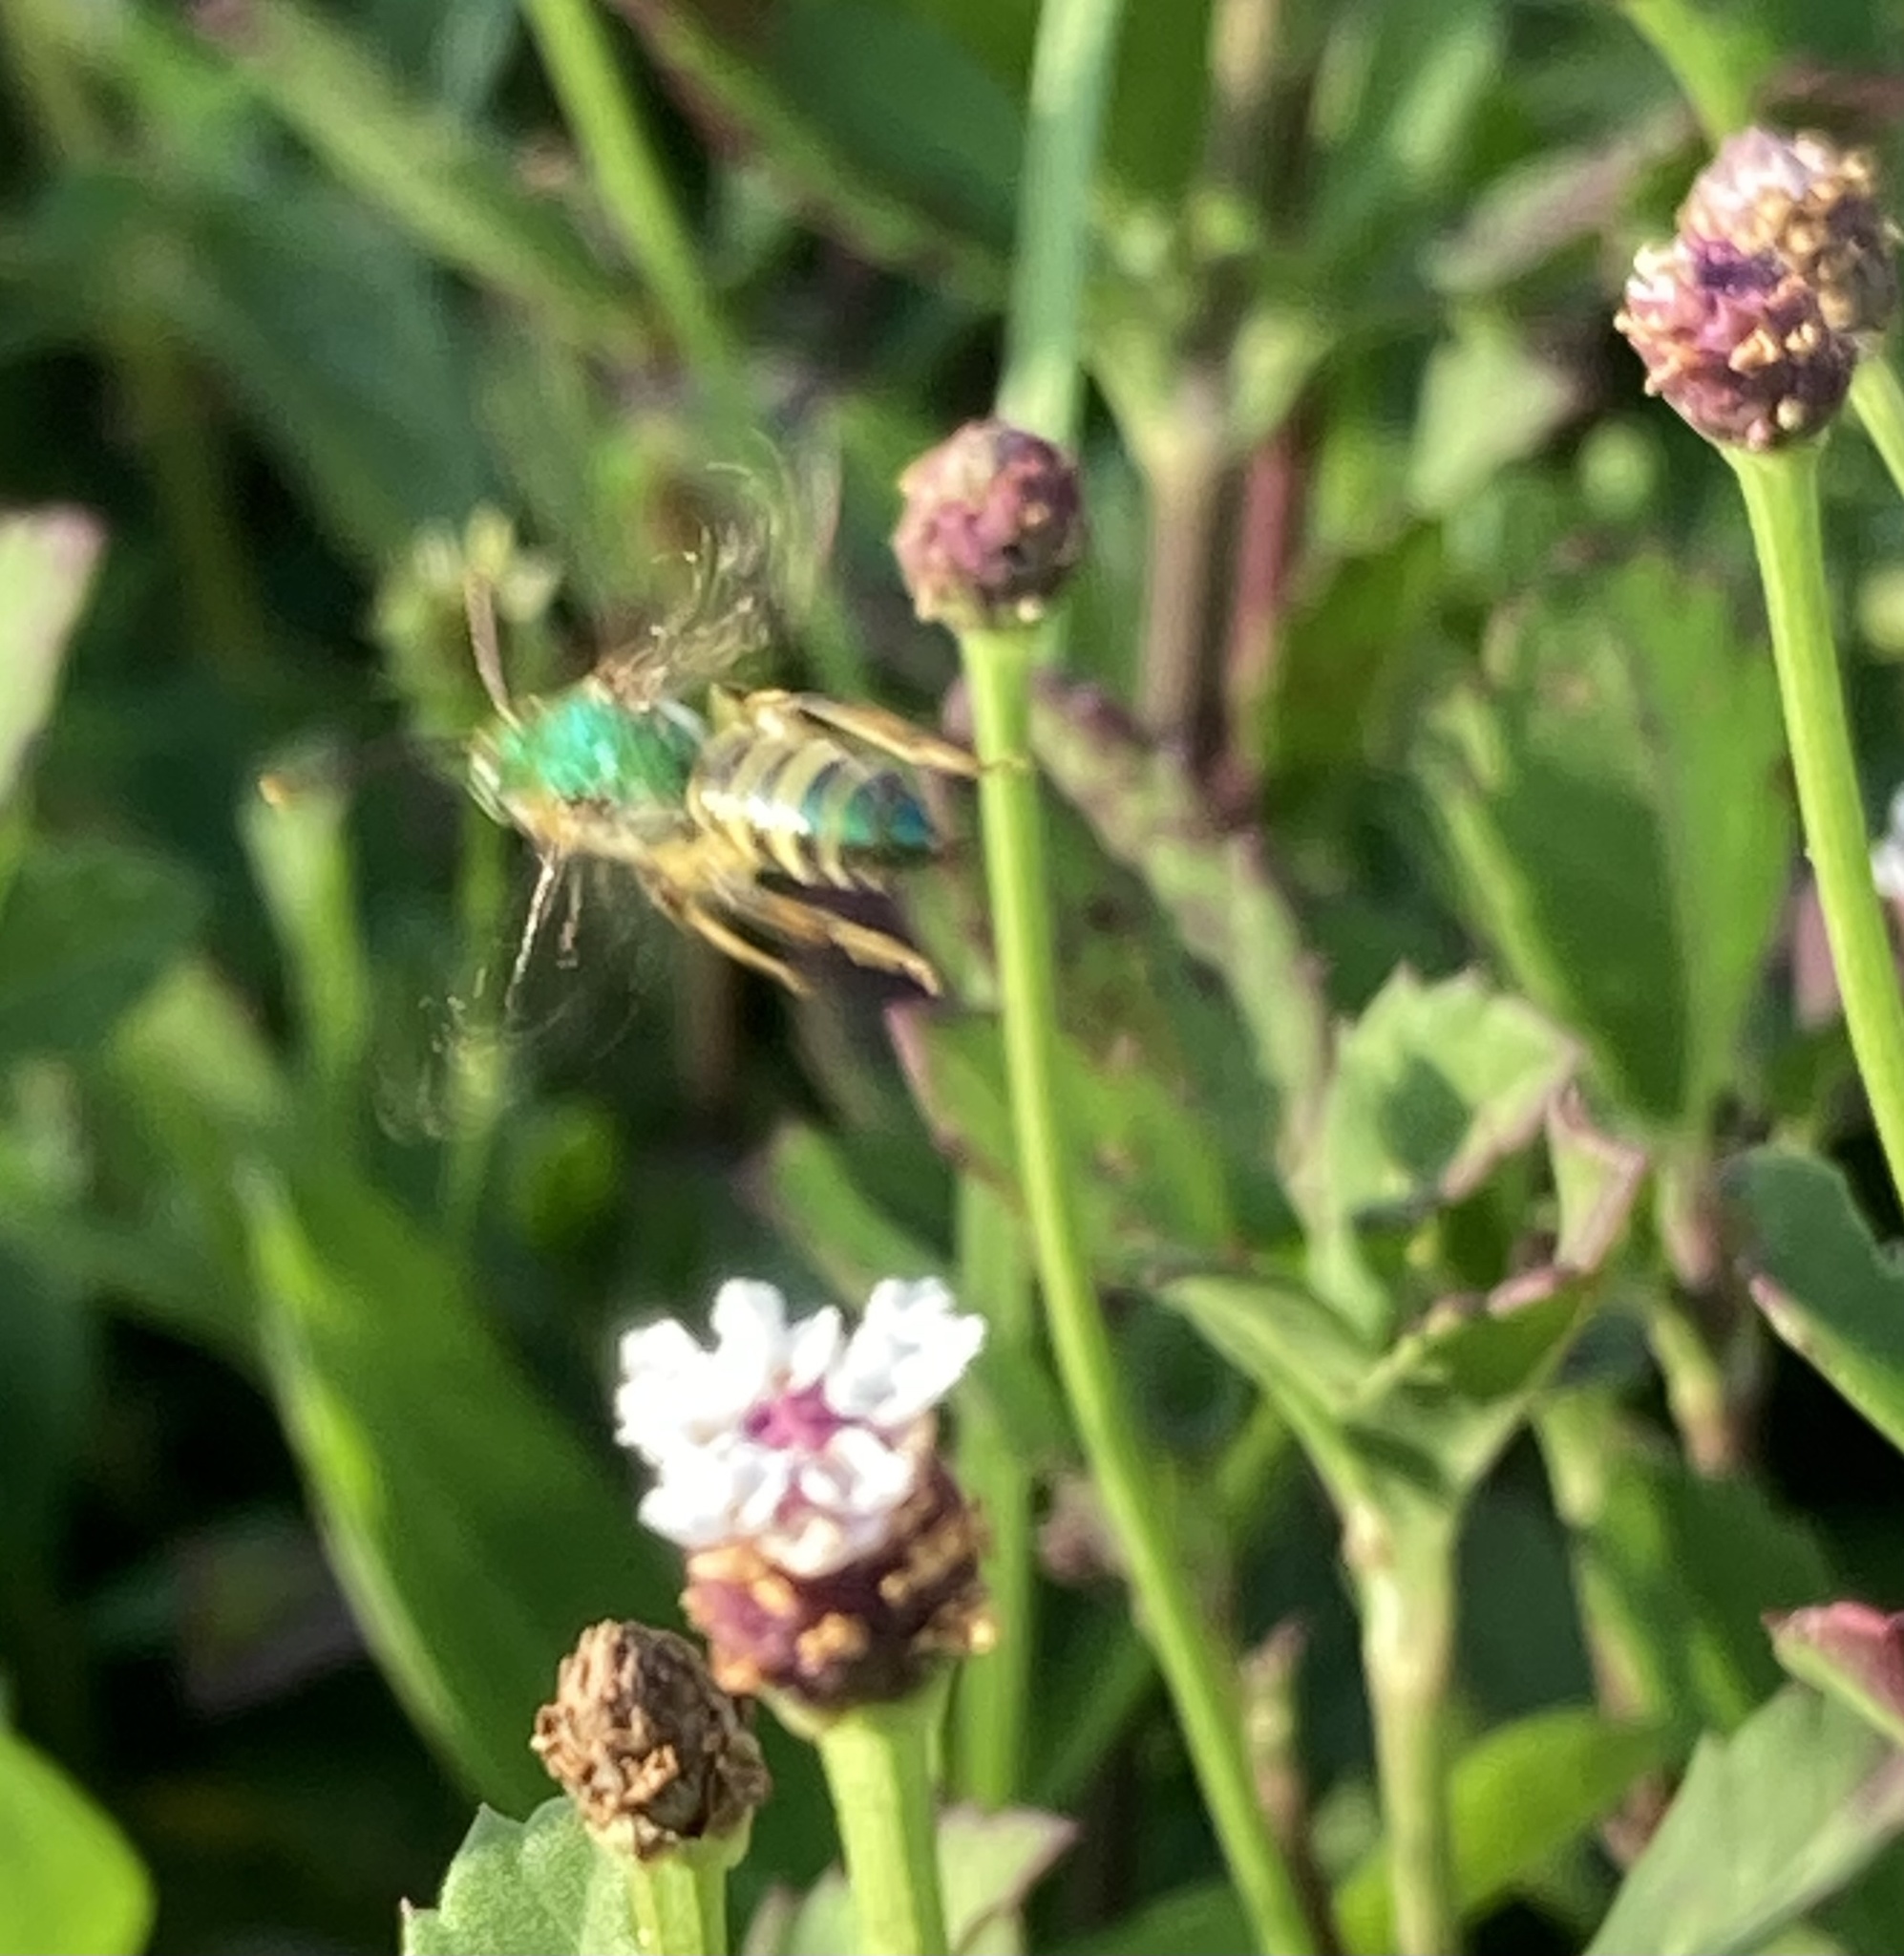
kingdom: Animalia
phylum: Arthropoda
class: Insecta
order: Hymenoptera
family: Halictidae
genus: Agapostemon
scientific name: Agapostemon poeyi
